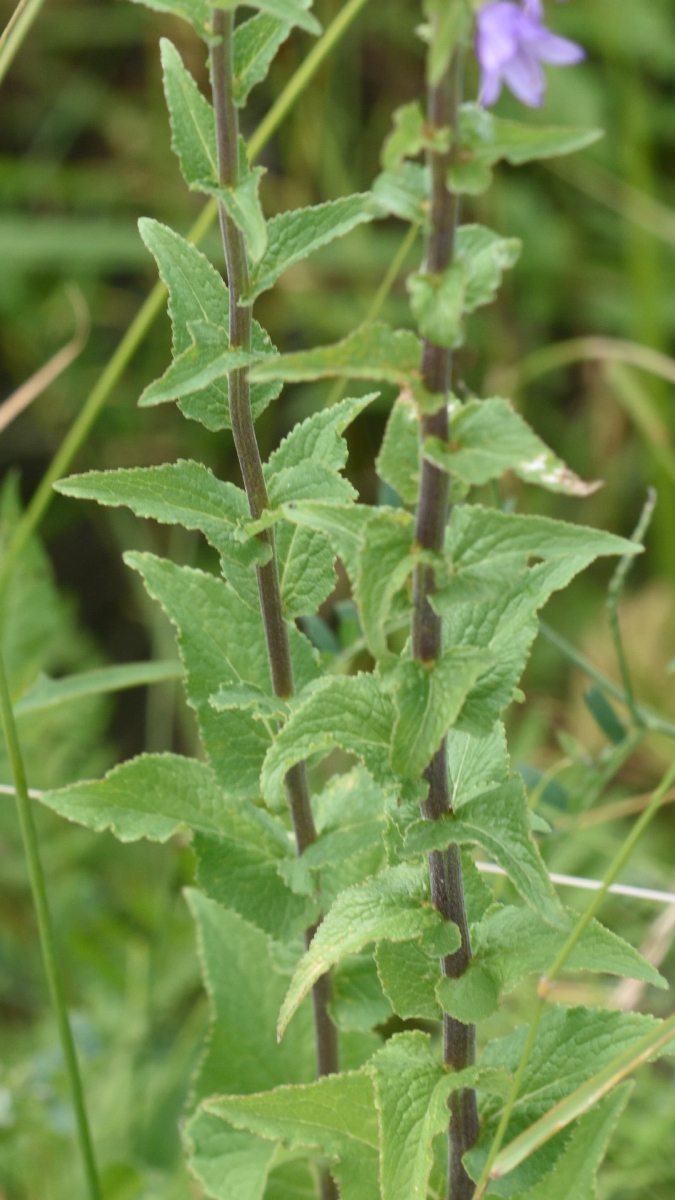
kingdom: Plantae
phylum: Tracheophyta
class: Magnoliopsida
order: Asterales
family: Campanulaceae
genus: Campanula
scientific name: Campanula bononiensis
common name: Pale bellflower
